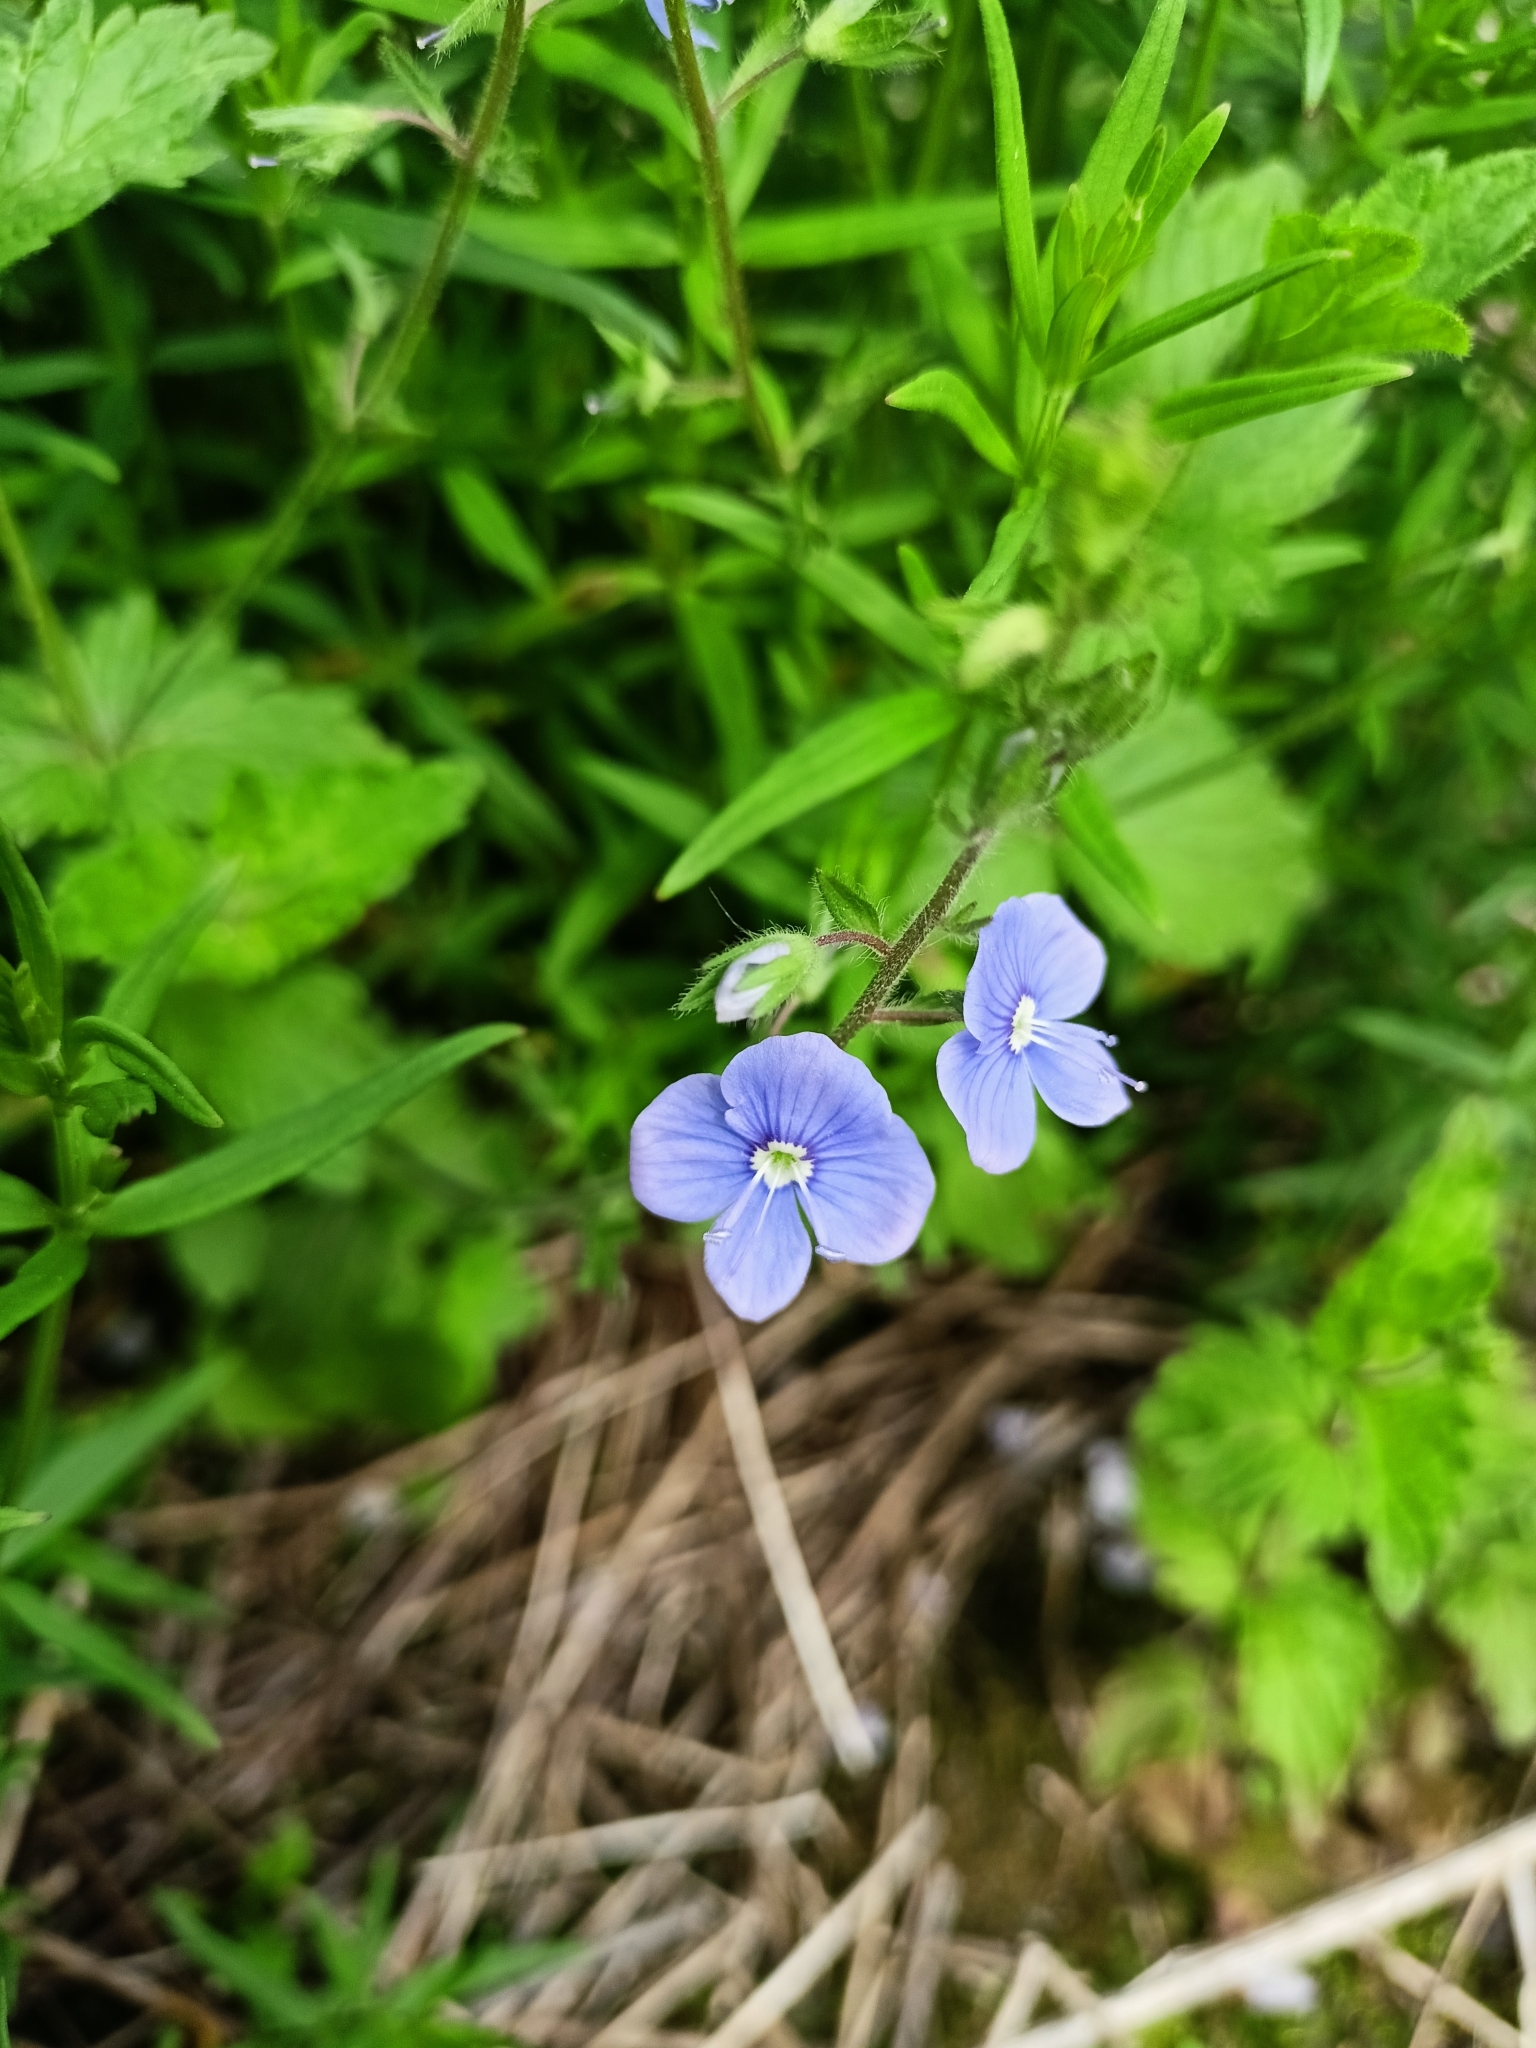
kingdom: Plantae
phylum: Tracheophyta
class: Magnoliopsida
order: Lamiales
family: Plantaginaceae
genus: Veronica
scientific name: Veronica chamaedrys
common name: Germander speedwell
